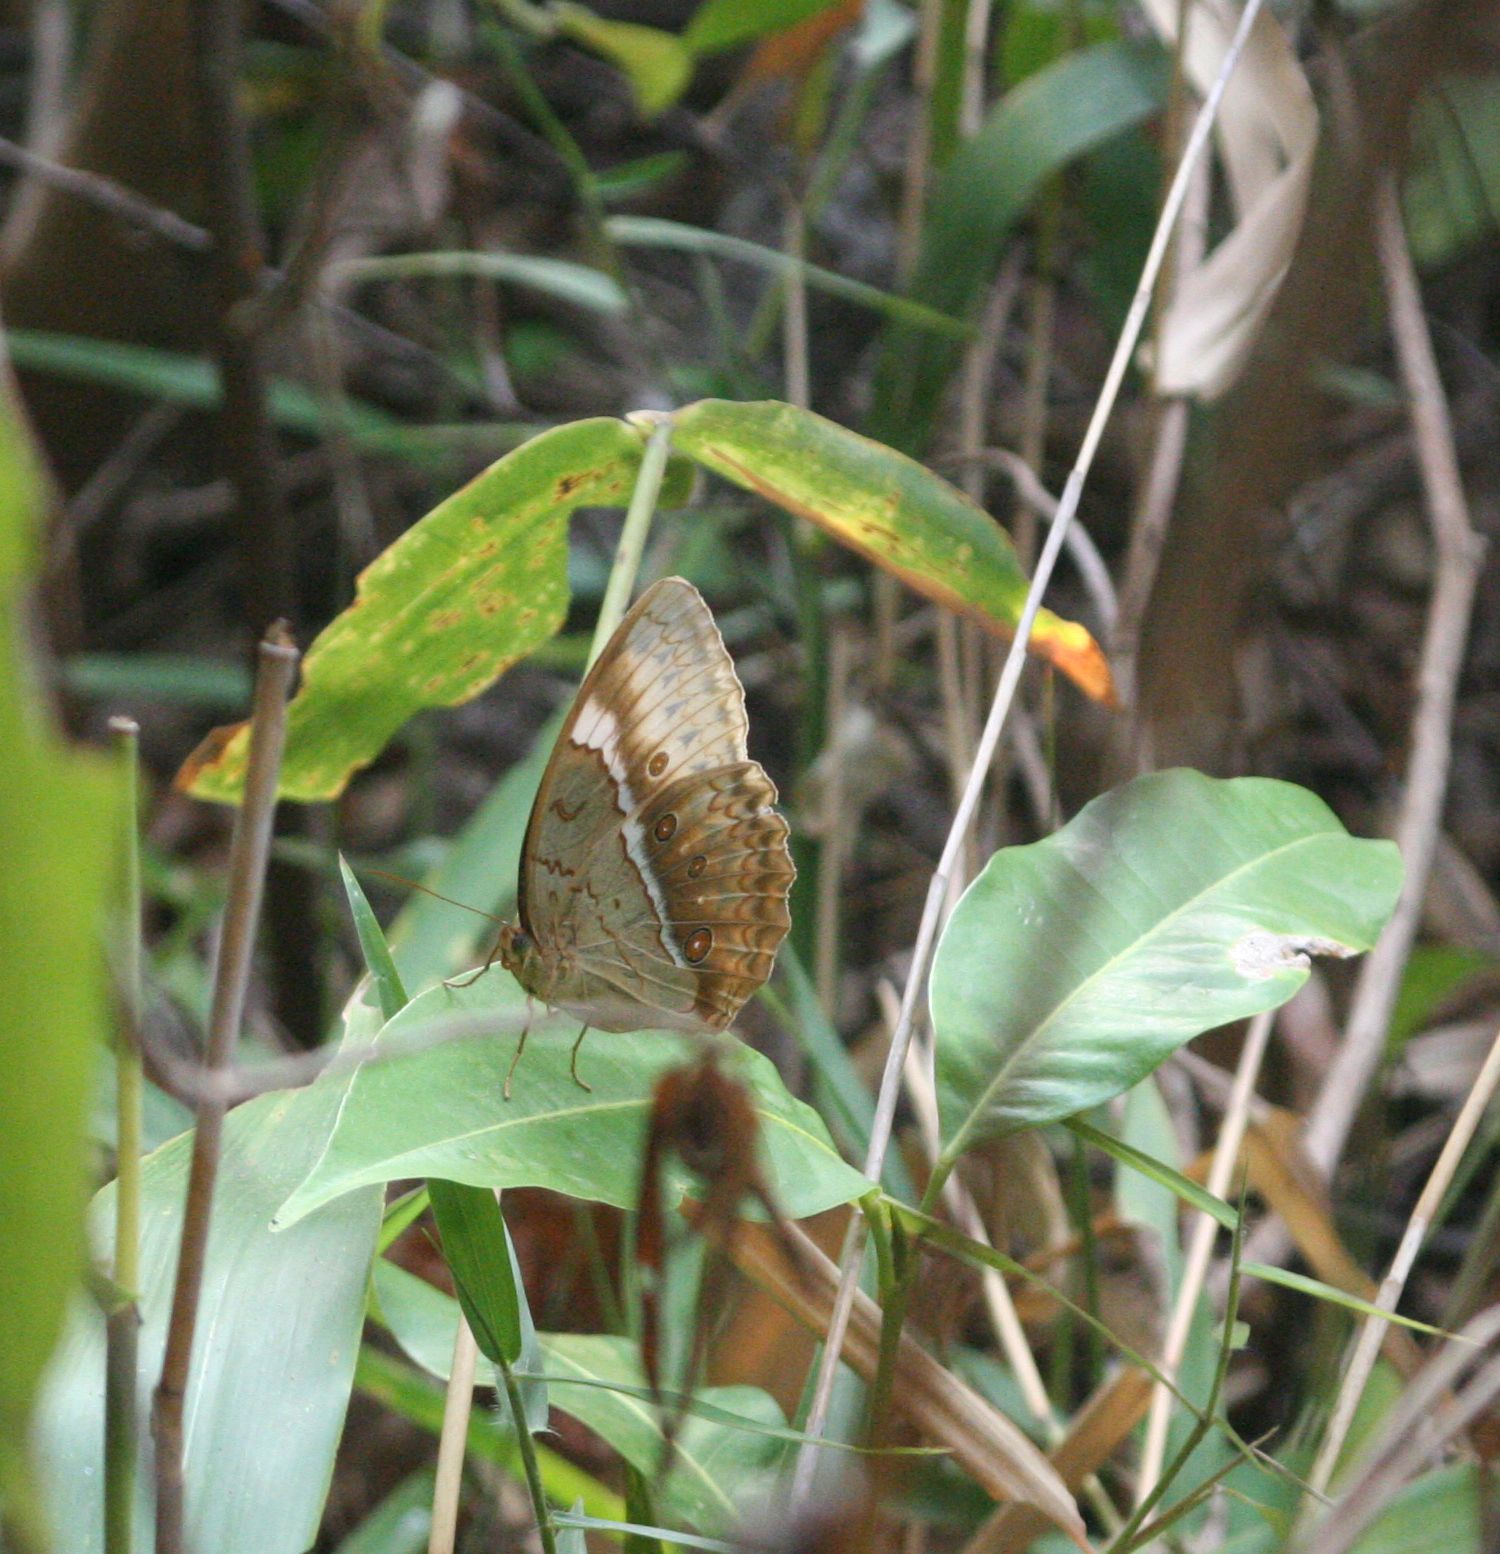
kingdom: Animalia
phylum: Arthropoda
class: Insecta
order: Lepidoptera
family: Nymphalidae
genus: Stichophthalma
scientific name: Stichophthalma cambodia
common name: Cambodian junglequeen
